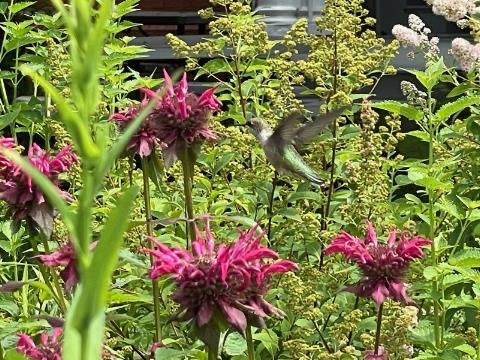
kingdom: Animalia
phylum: Chordata
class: Aves
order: Apodiformes
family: Trochilidae
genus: Archilochus
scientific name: Archilochus colubris
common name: Ruby-throated hummingbird
